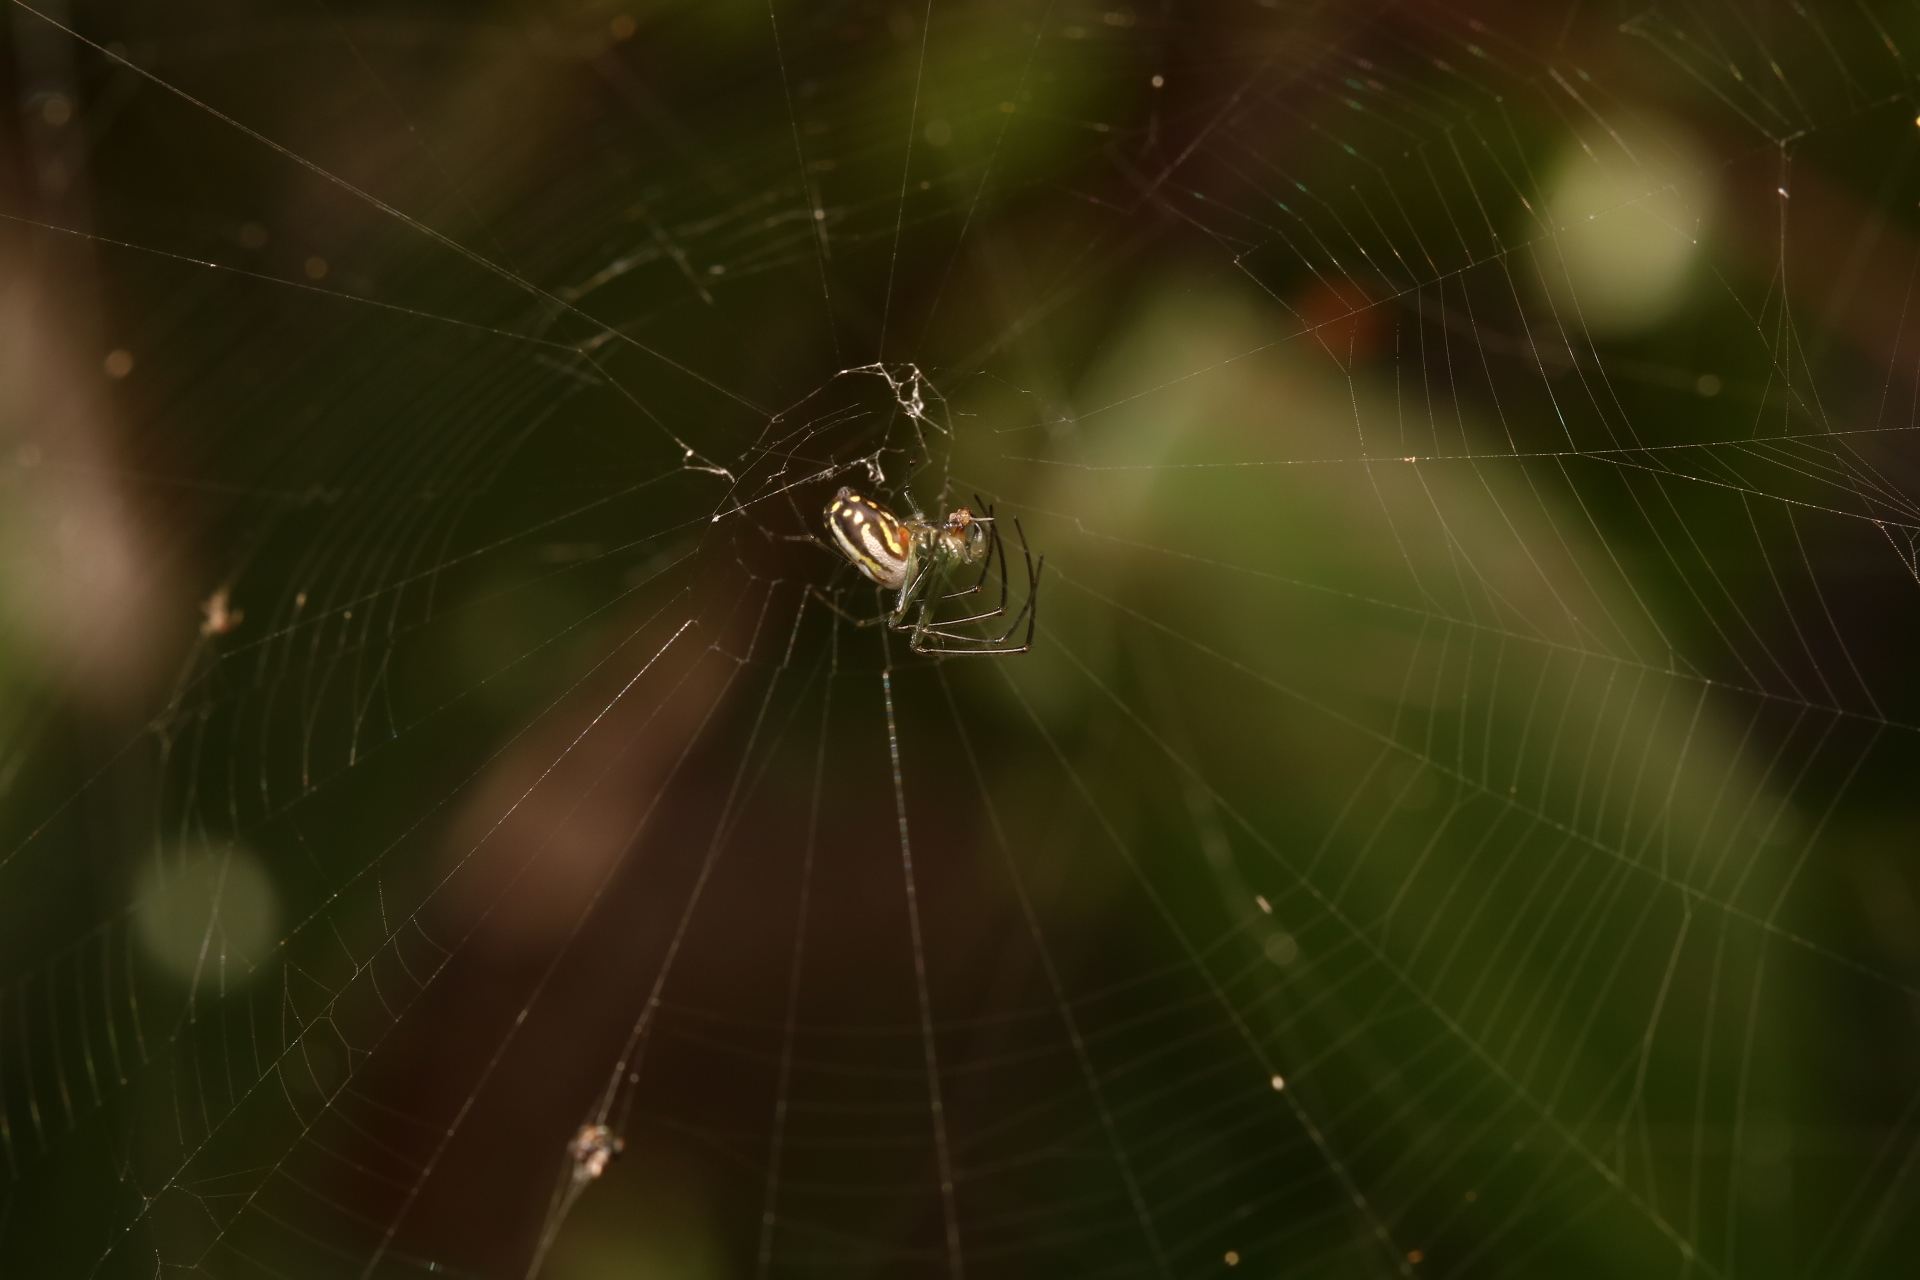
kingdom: Animalia
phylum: Arthropoda
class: Arachnida
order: Araneae
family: Tetragnathidae
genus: Leucauge
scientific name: Leucauge argyra
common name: Longjawed orb weavers
